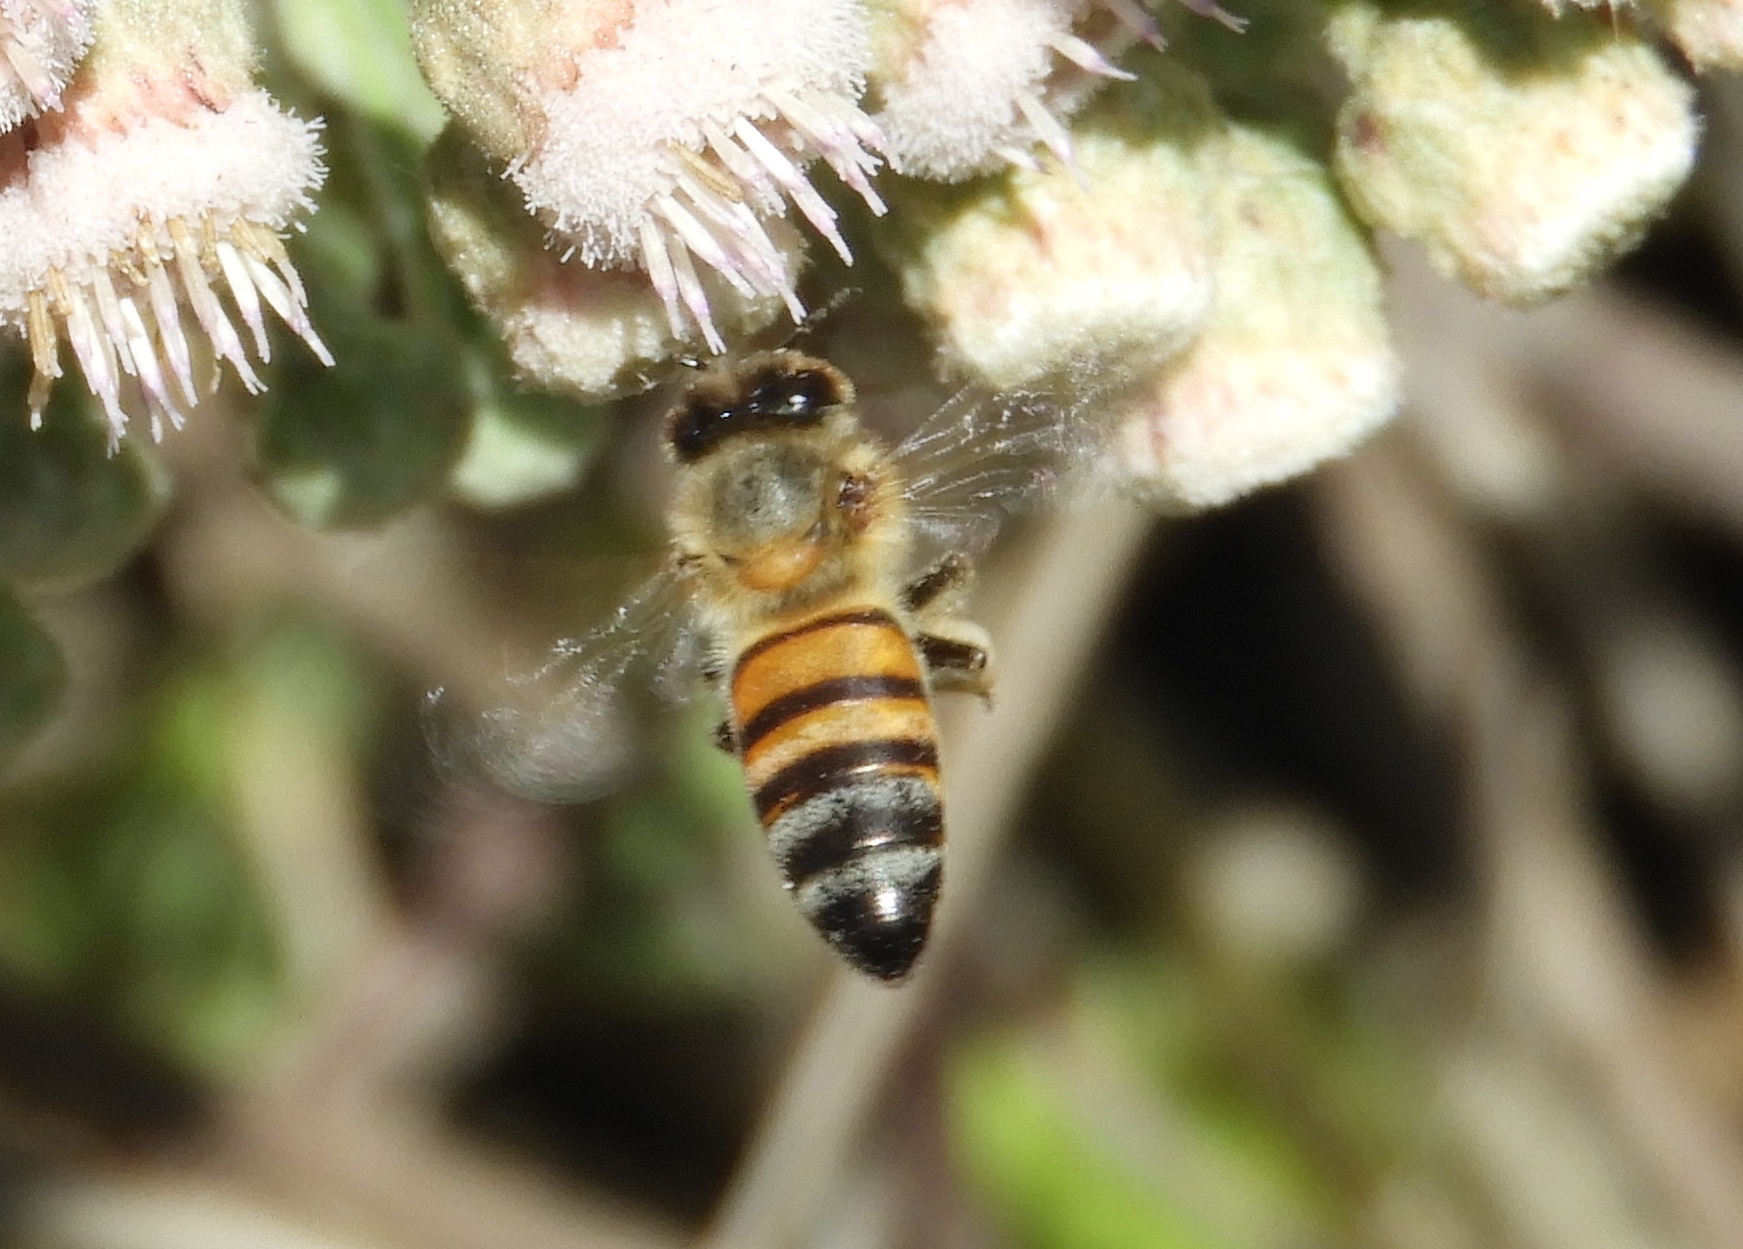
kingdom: Animalia
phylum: Arthropoda
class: Insecta
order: Hymenoptera
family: Apidae
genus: Apis
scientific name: Apis mellifera
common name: Honey bee
